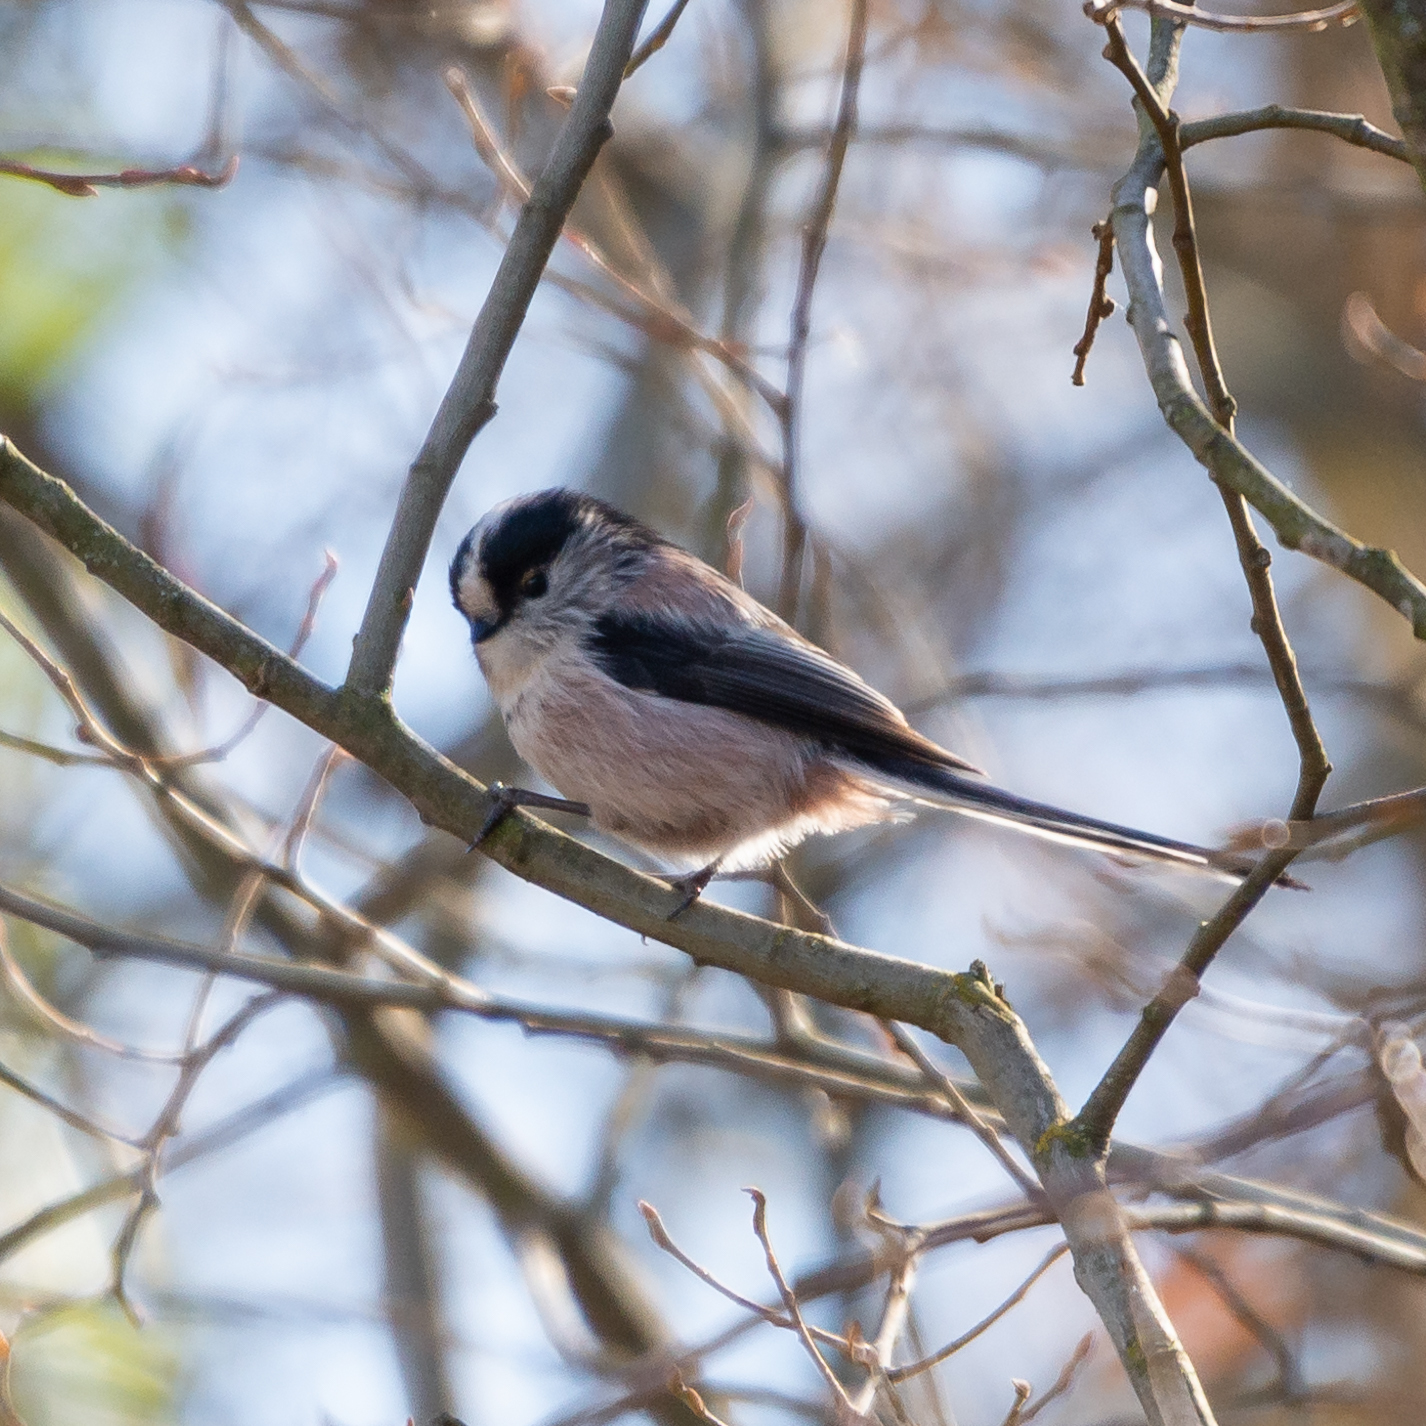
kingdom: Animalia
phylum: Chordata
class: Aves
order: Passeriformes
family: Aegithalidae
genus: Aegithalos
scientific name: Aegithalos caudatus
